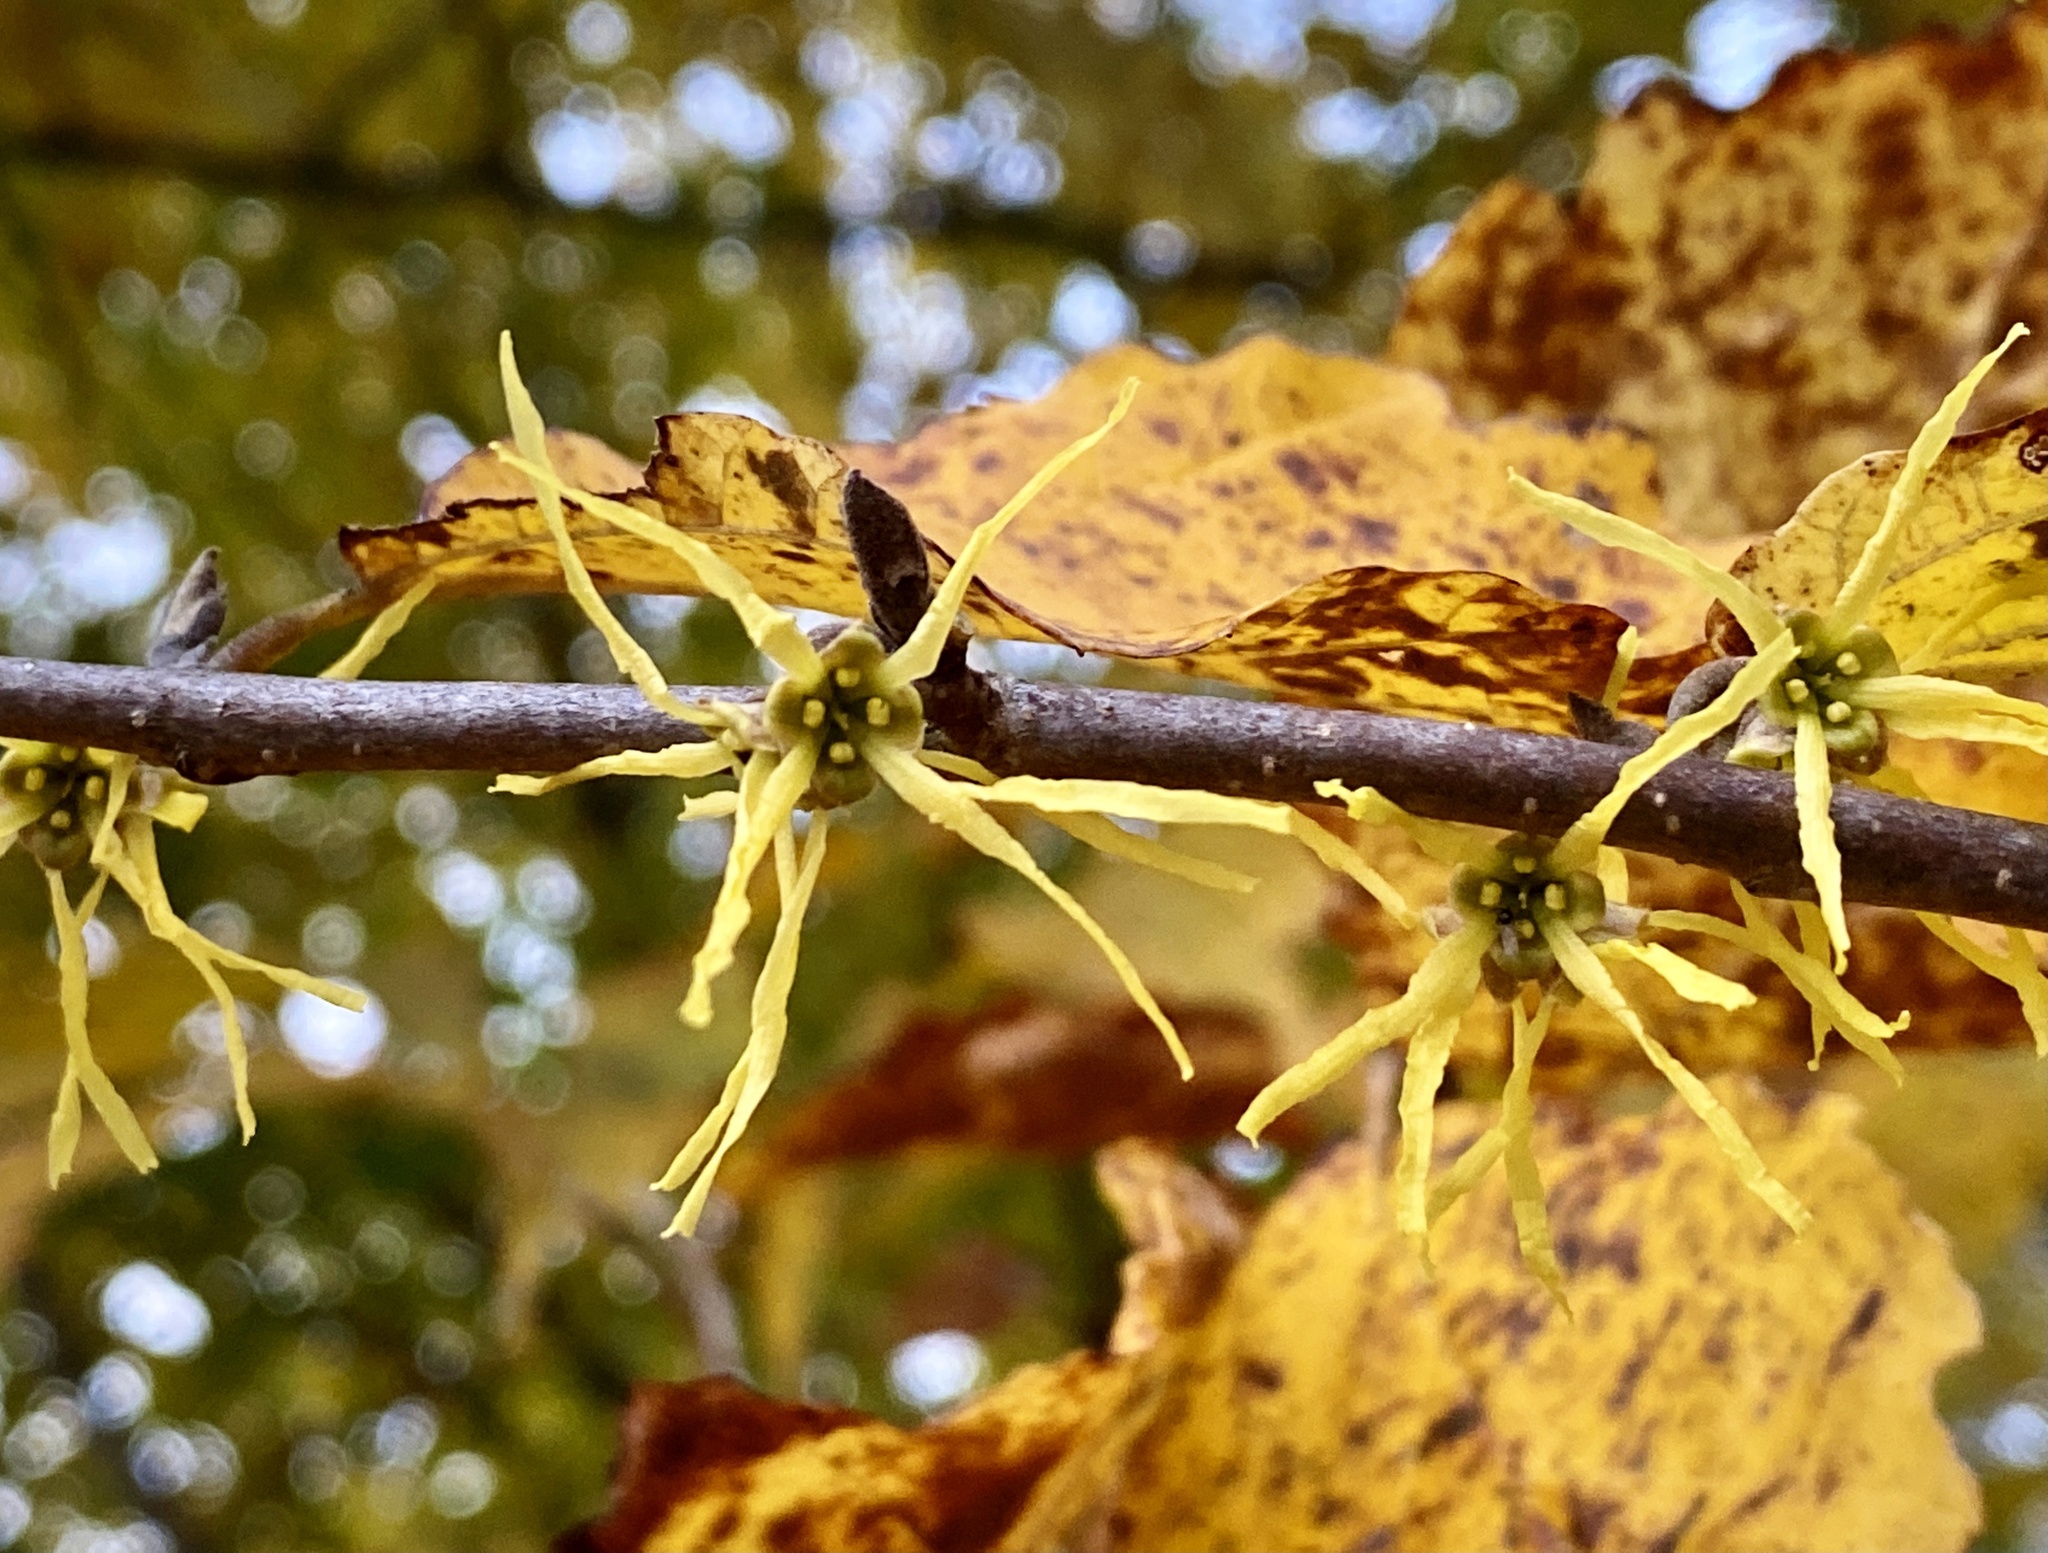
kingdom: Plantae
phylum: Tracheophyta
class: Magnoliopsida
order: Saxifragales
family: Hamamelidaceae
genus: Hamamelis
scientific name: Hamamelis virginiana
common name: Witch-hazel
